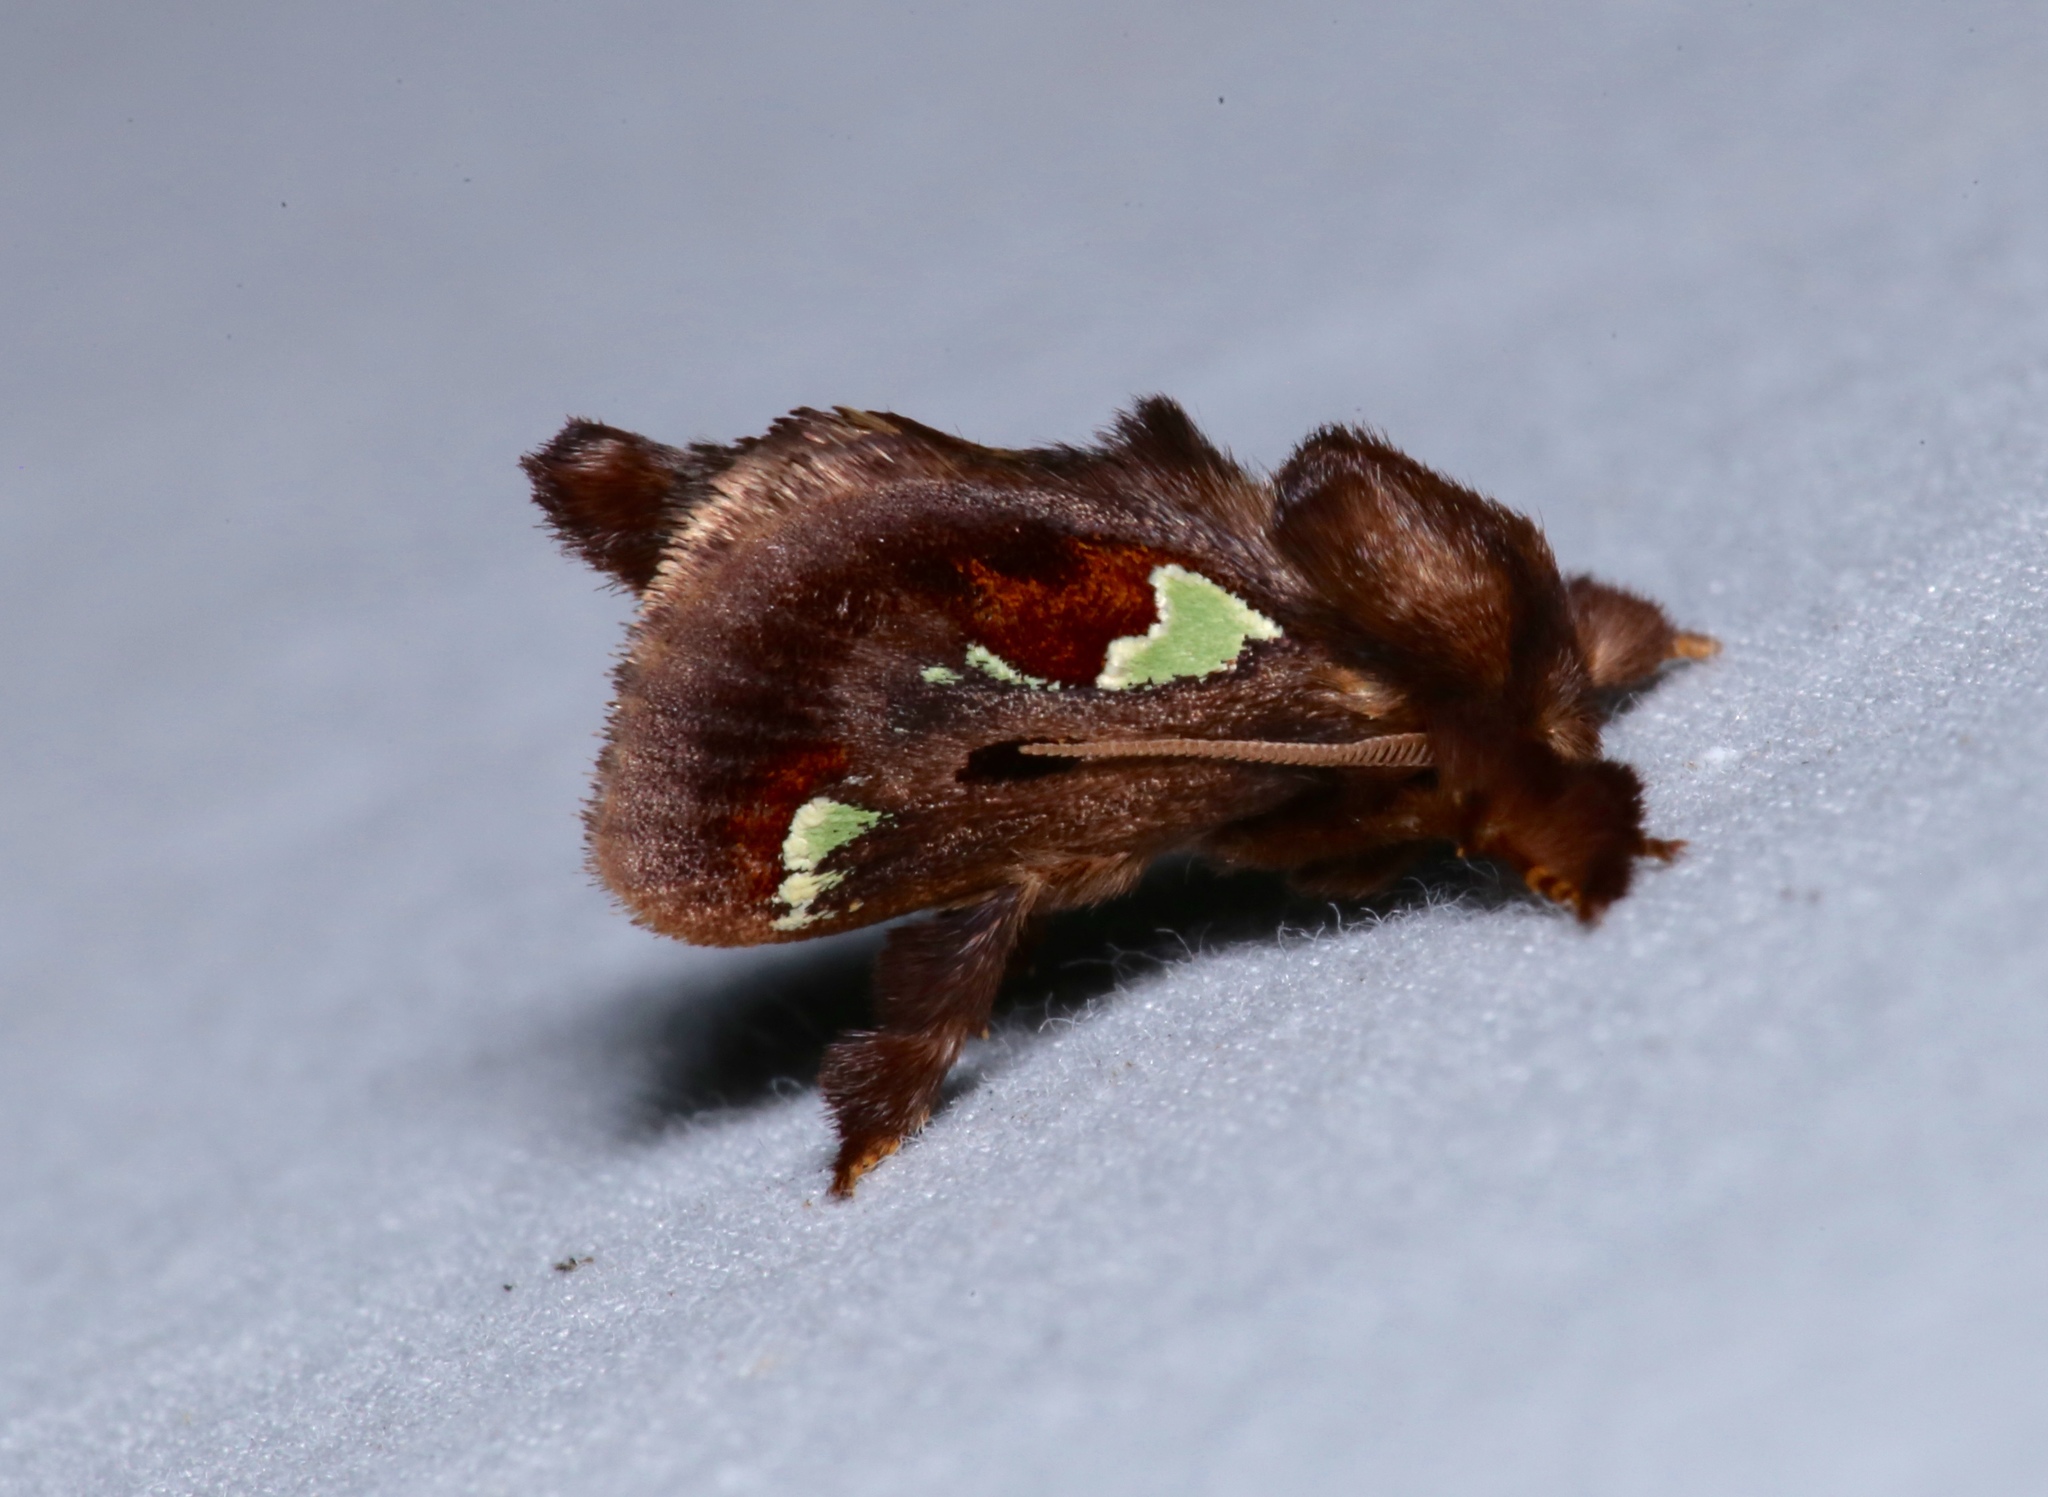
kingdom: Animalia
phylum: Arthropoda
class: Insecta
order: Lepidoptera
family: Limacodidae
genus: Euclea
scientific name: Euclea delphinii
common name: Spiny oak-slug moth
